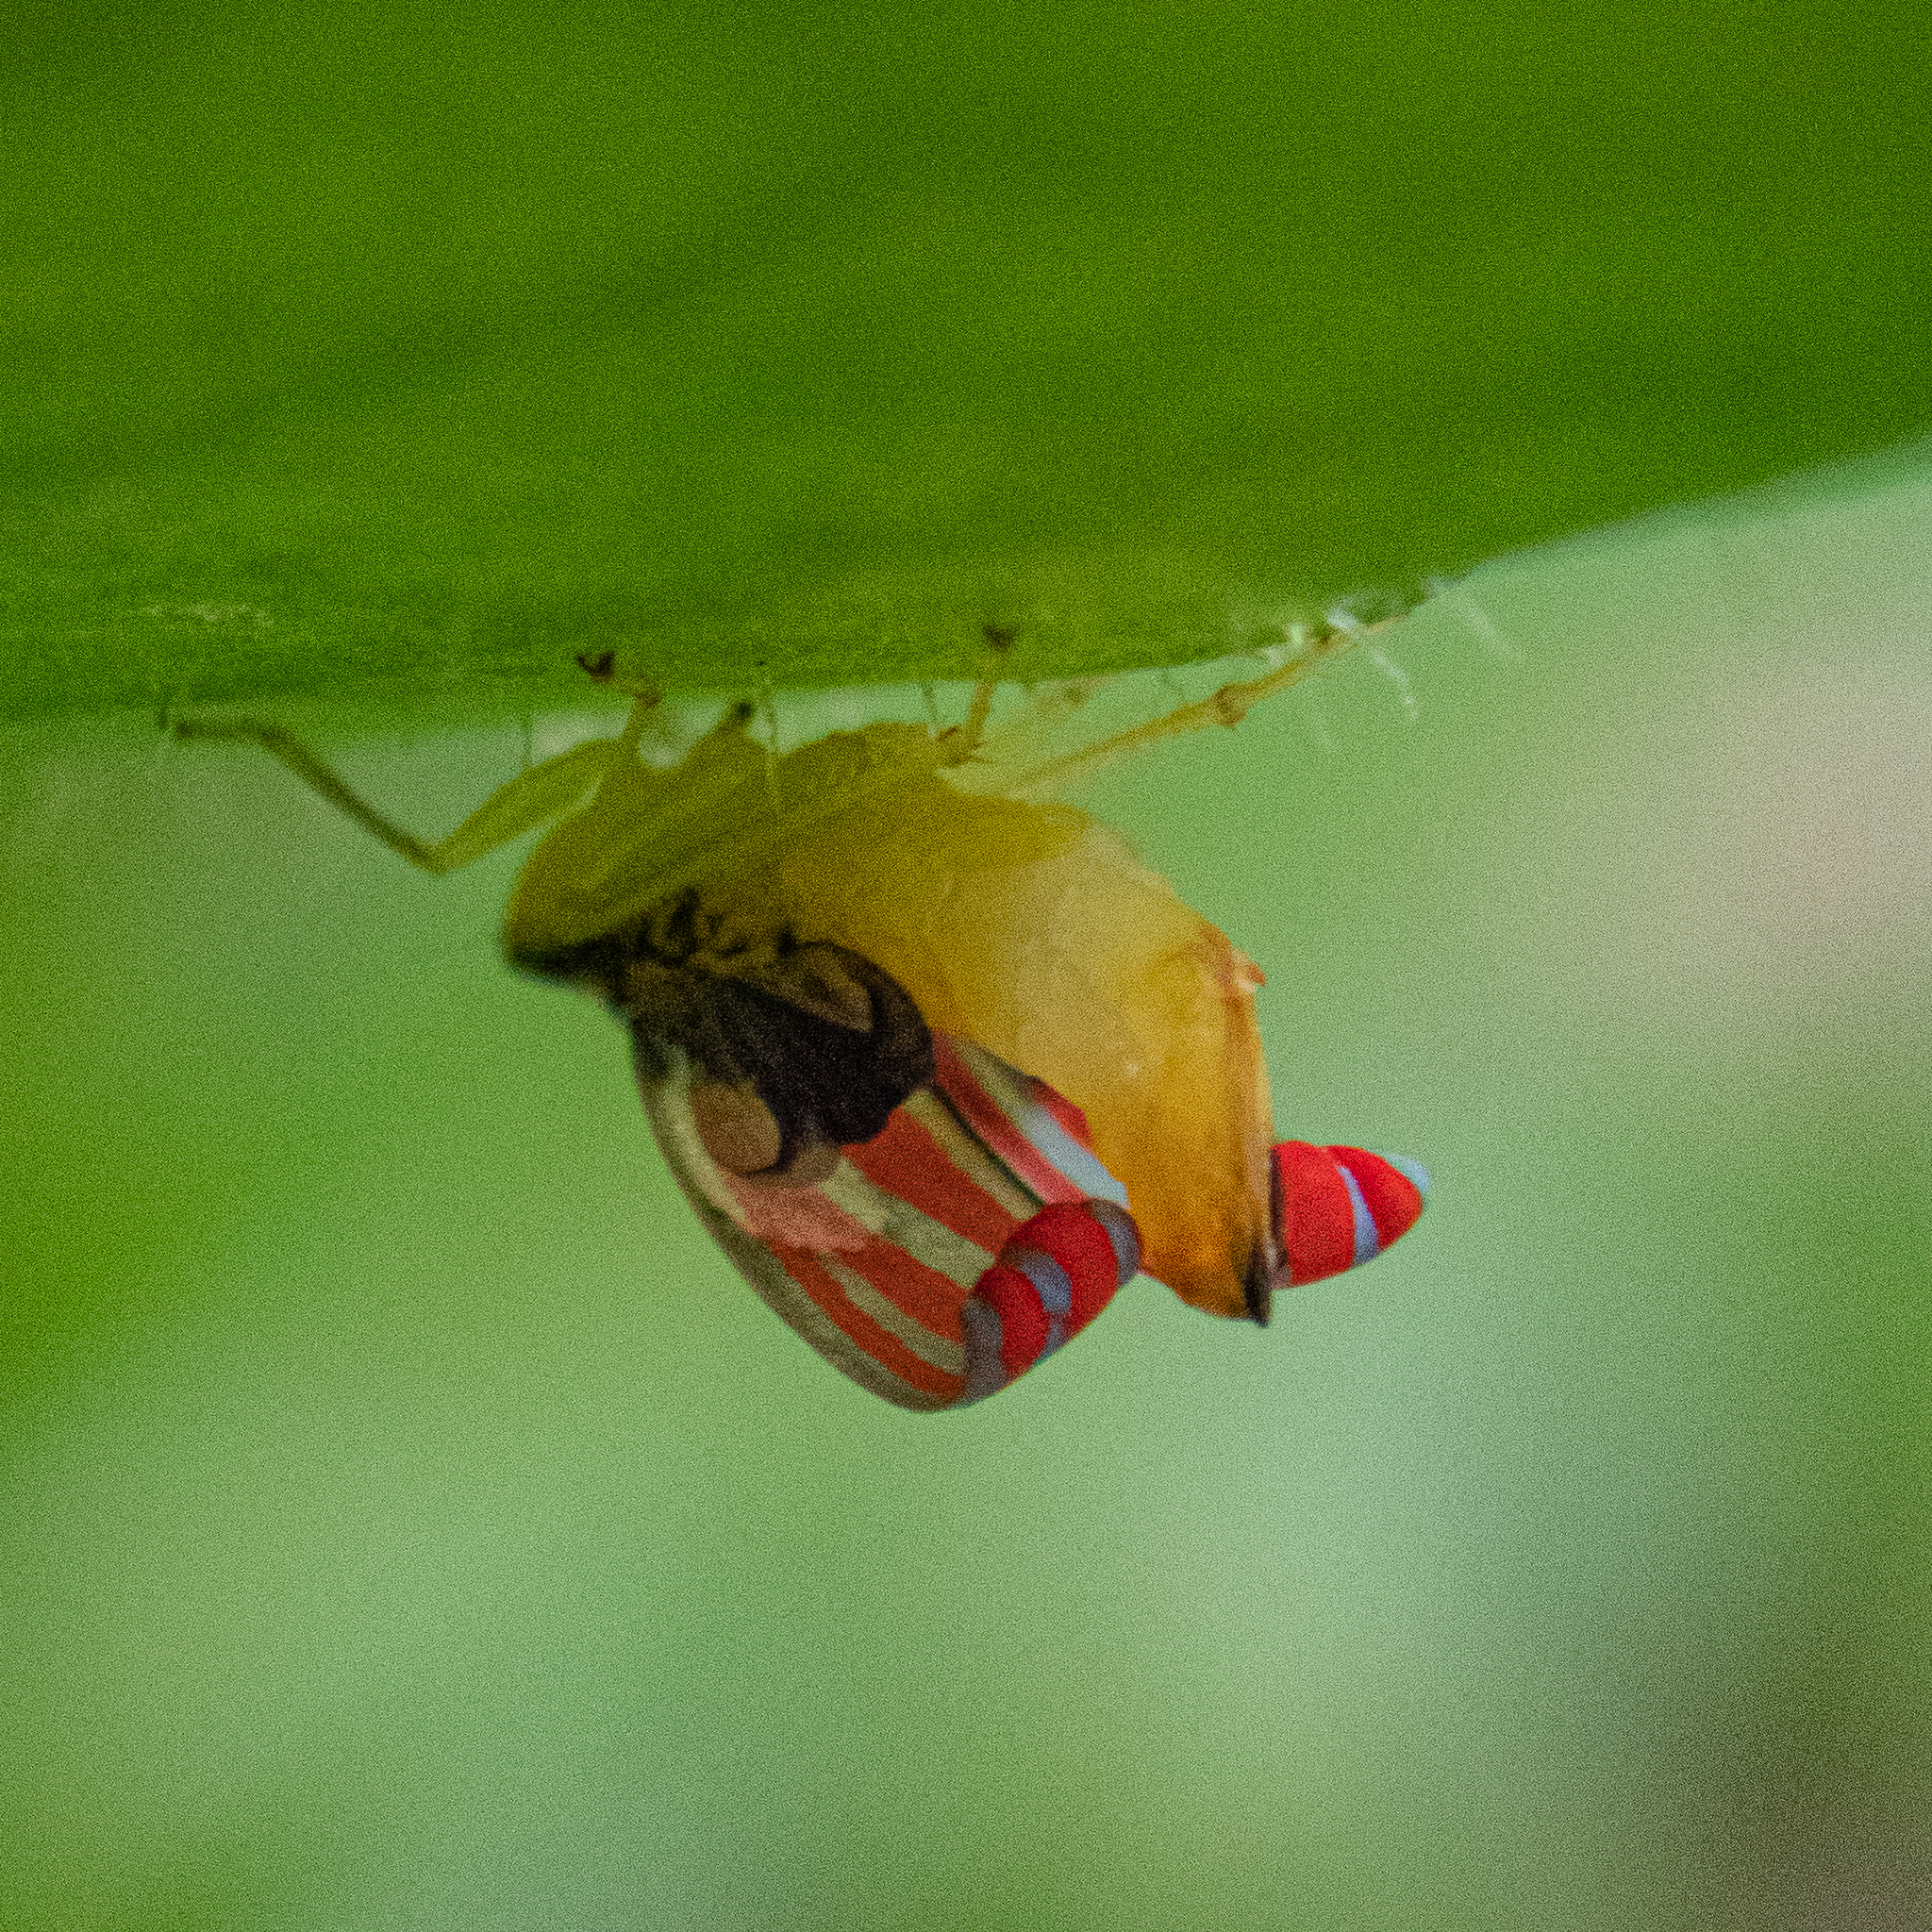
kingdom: Animalia
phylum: Arthropoda
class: Insecta
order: Hemiptera
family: Cicadellidae
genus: Graphocephala
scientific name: Graphocephala coccinea
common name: Candy-striped leafhopper
